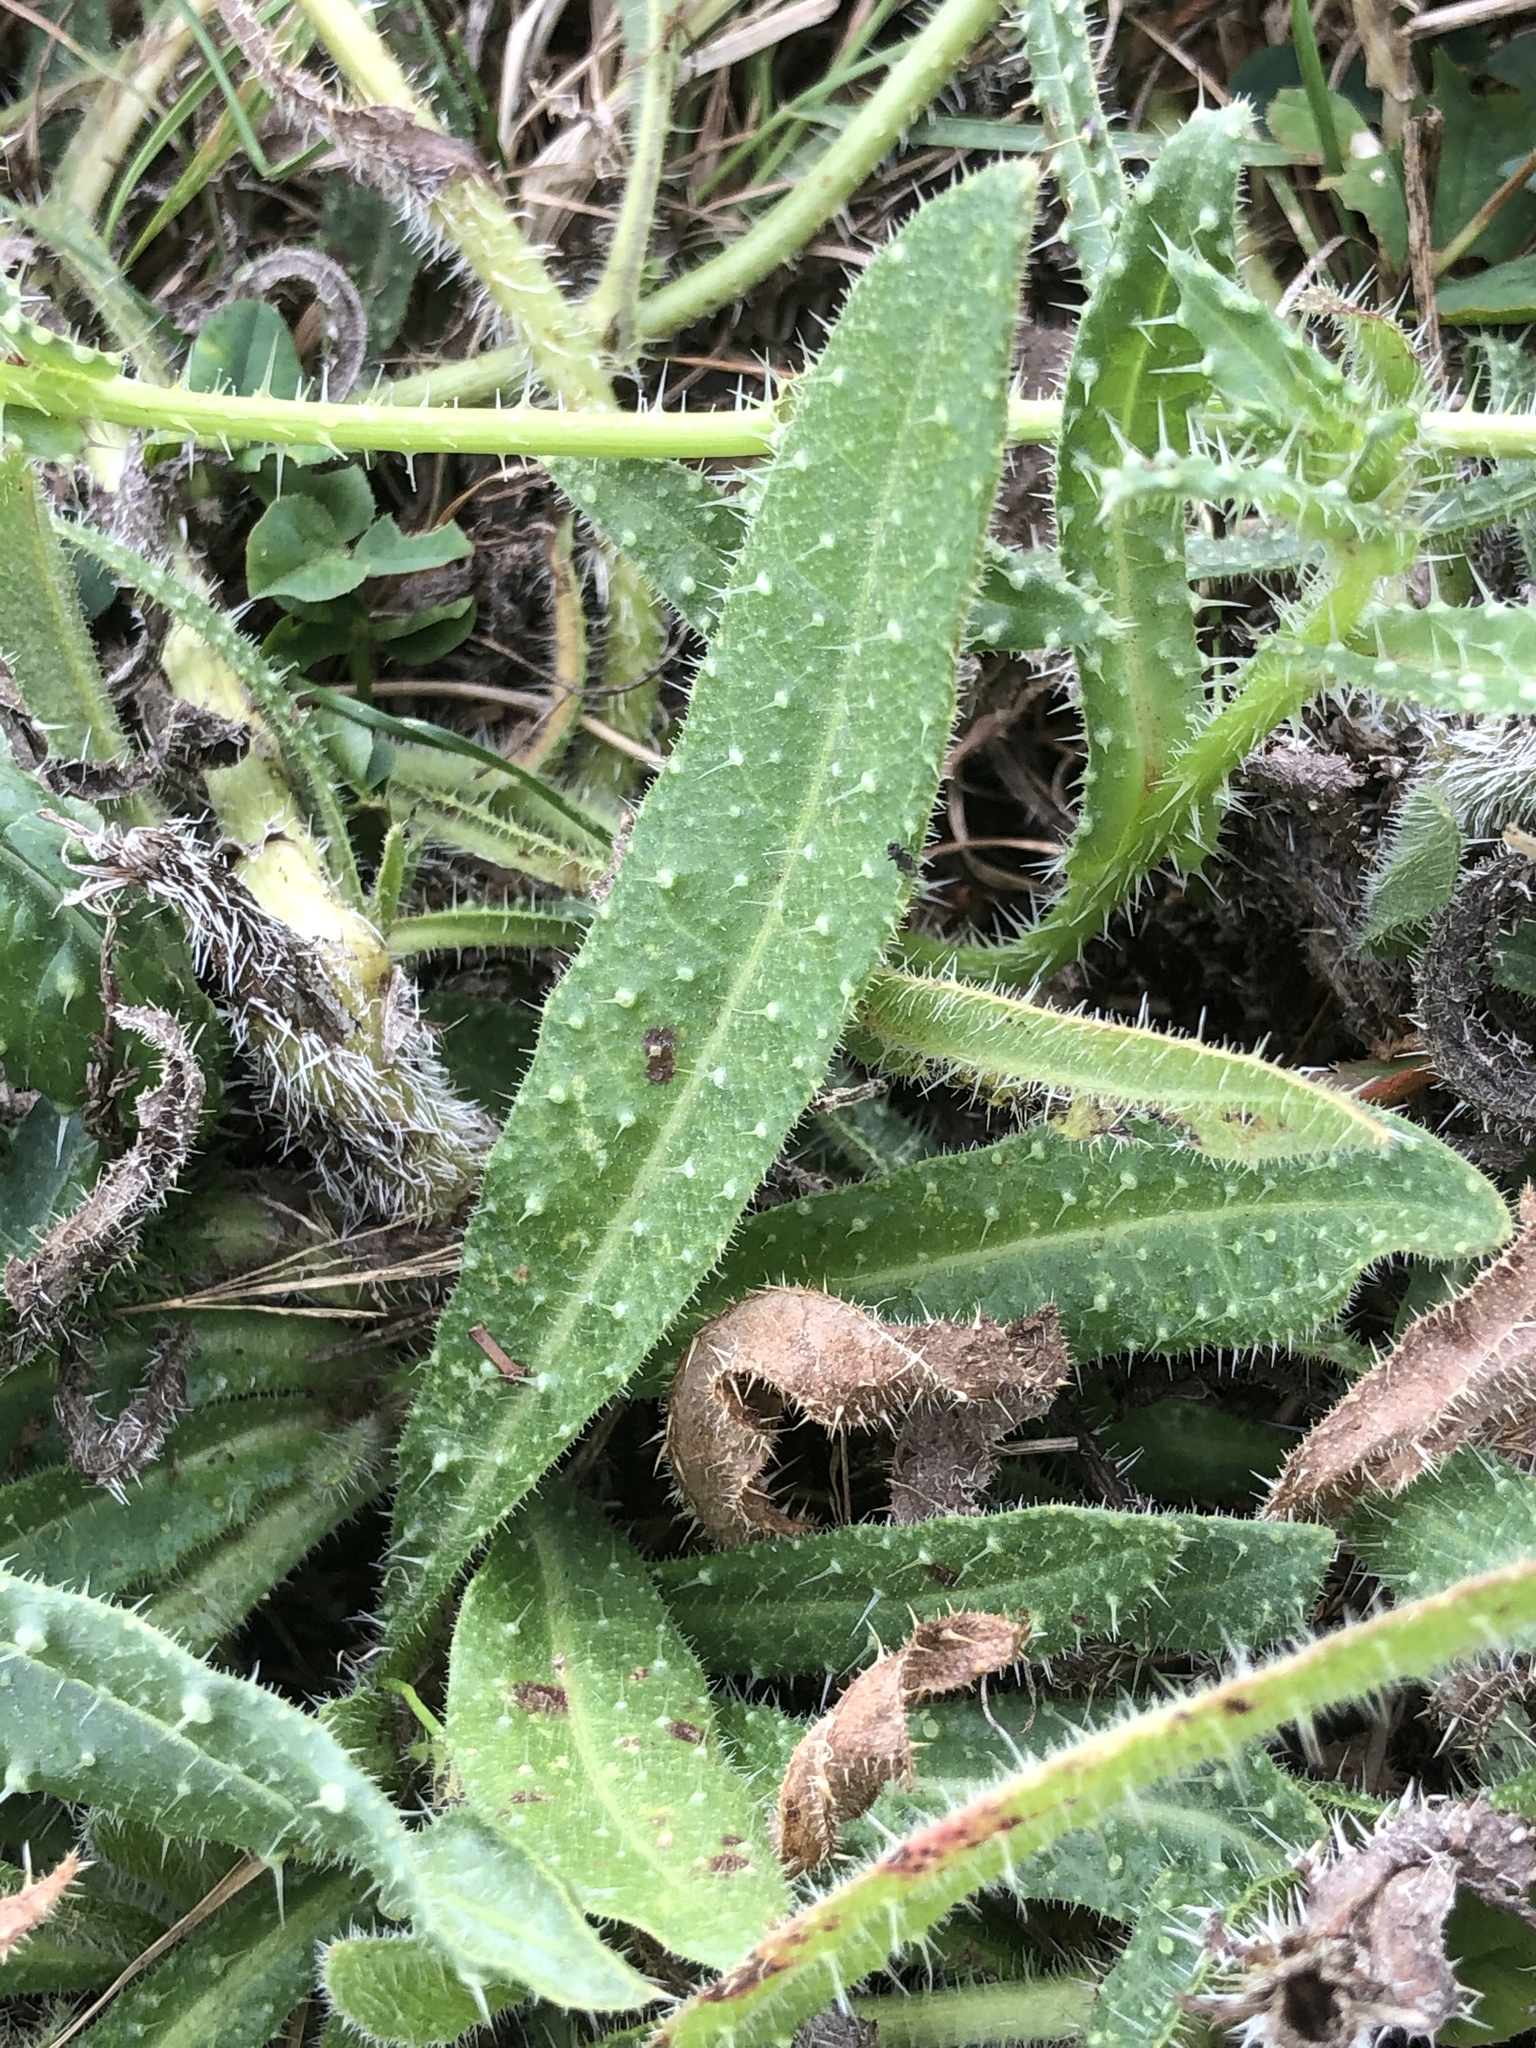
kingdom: Plantae
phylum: Tracheophyta
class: Magnoliopsida
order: Asterales
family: Asteraceae
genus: Helminthotheca
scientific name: Helminthotheca echioides
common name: Ox-tongue
